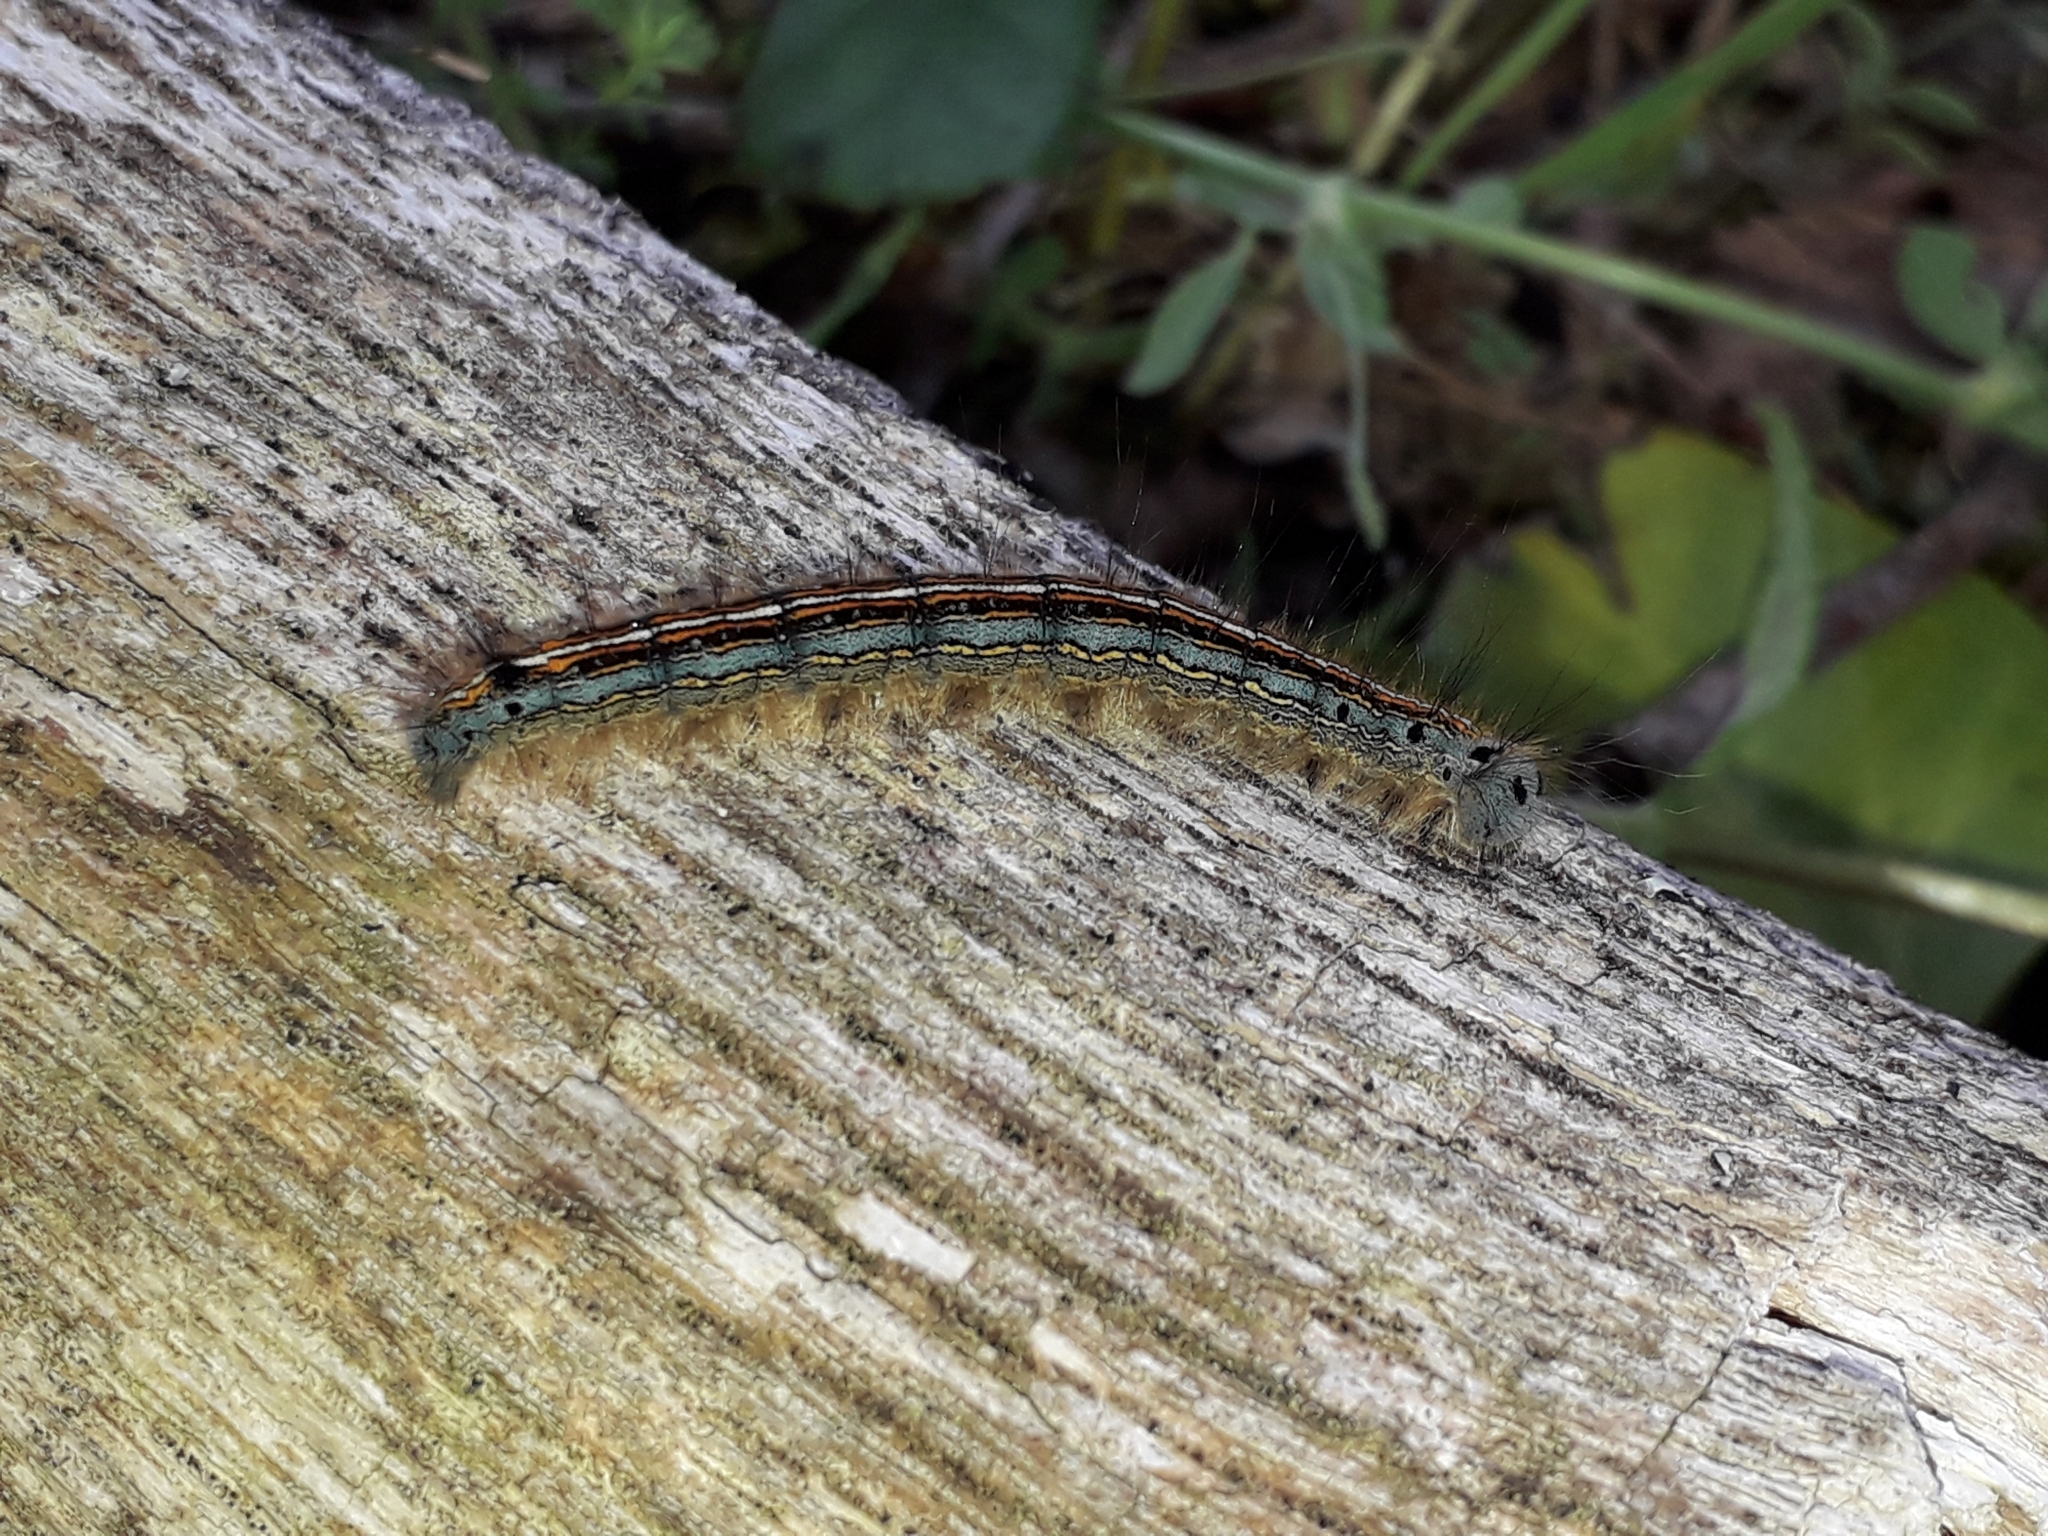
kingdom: Animalia
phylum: Arthropoda
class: Insecta
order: Lepidoptera
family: Lasiocampidae
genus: Malacosoma
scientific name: Malacosoma neustria
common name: The lackey
